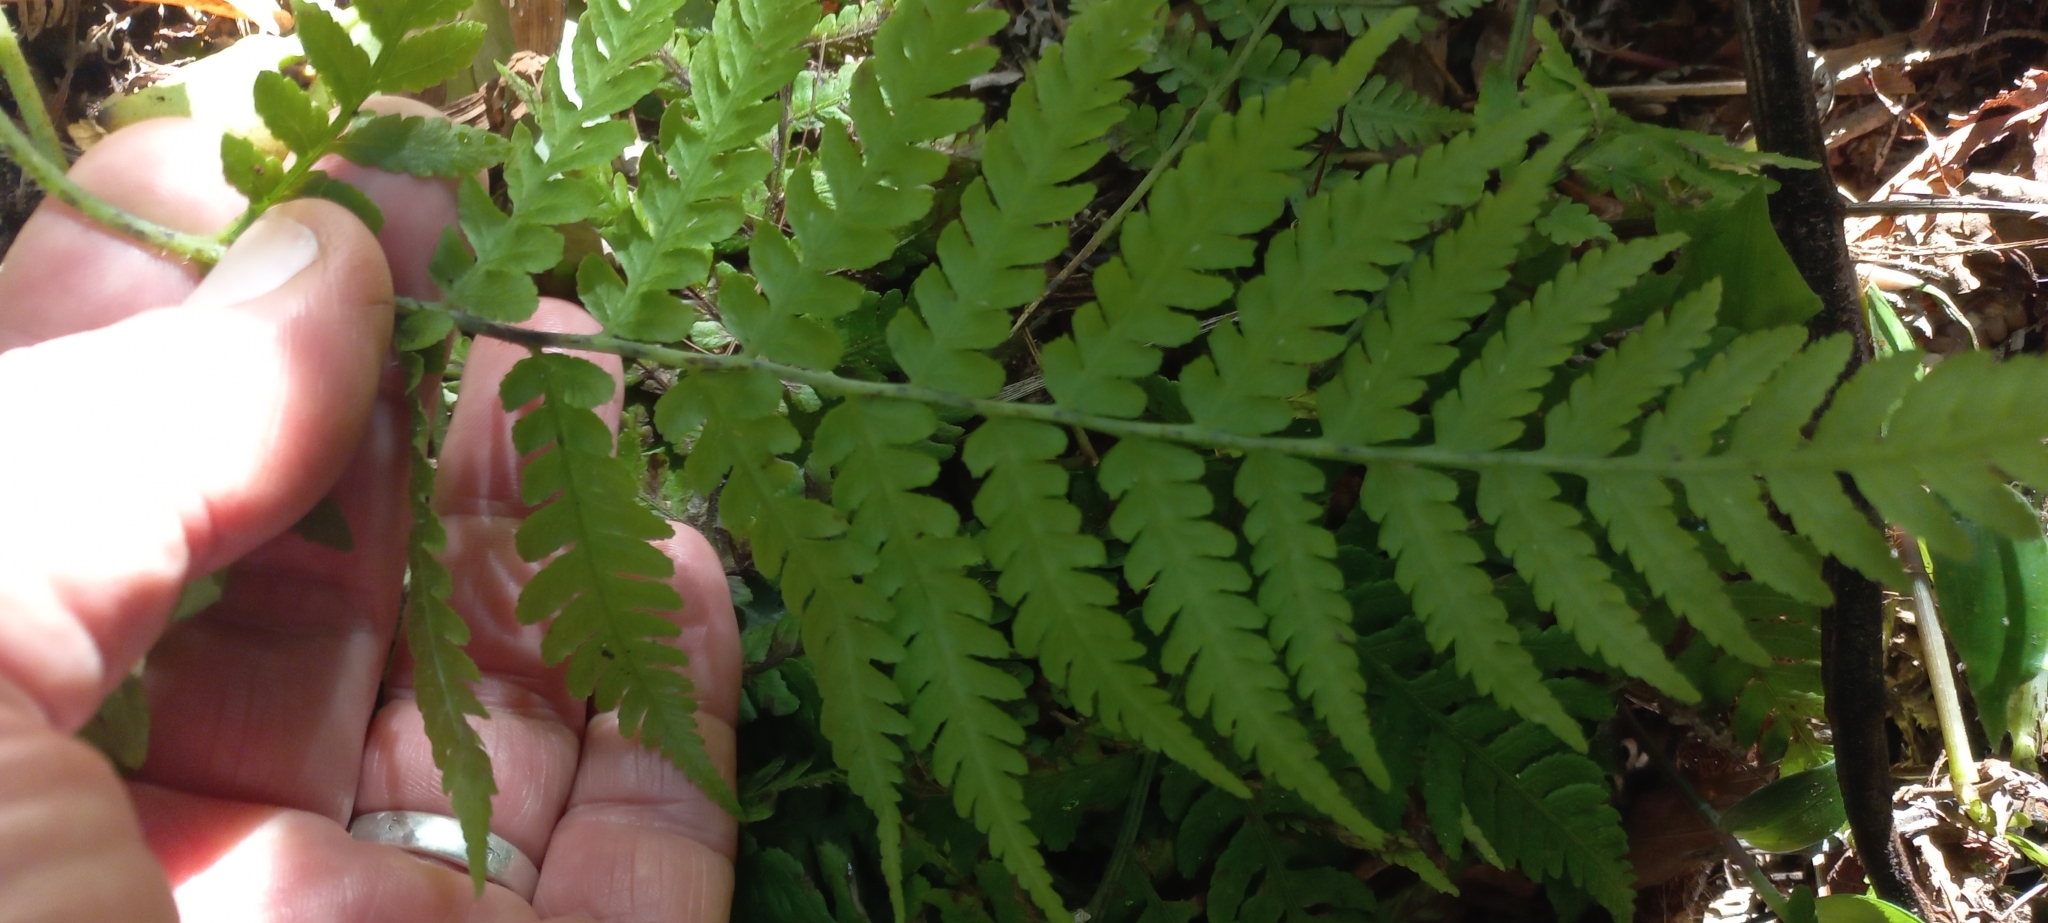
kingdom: Plantae
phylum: Tracheophyta
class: Polypodiopsida
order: Polypodiales
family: Athyriaceae
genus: Deparia
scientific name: Deparia petersenii
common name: Japanese false spleenwort
